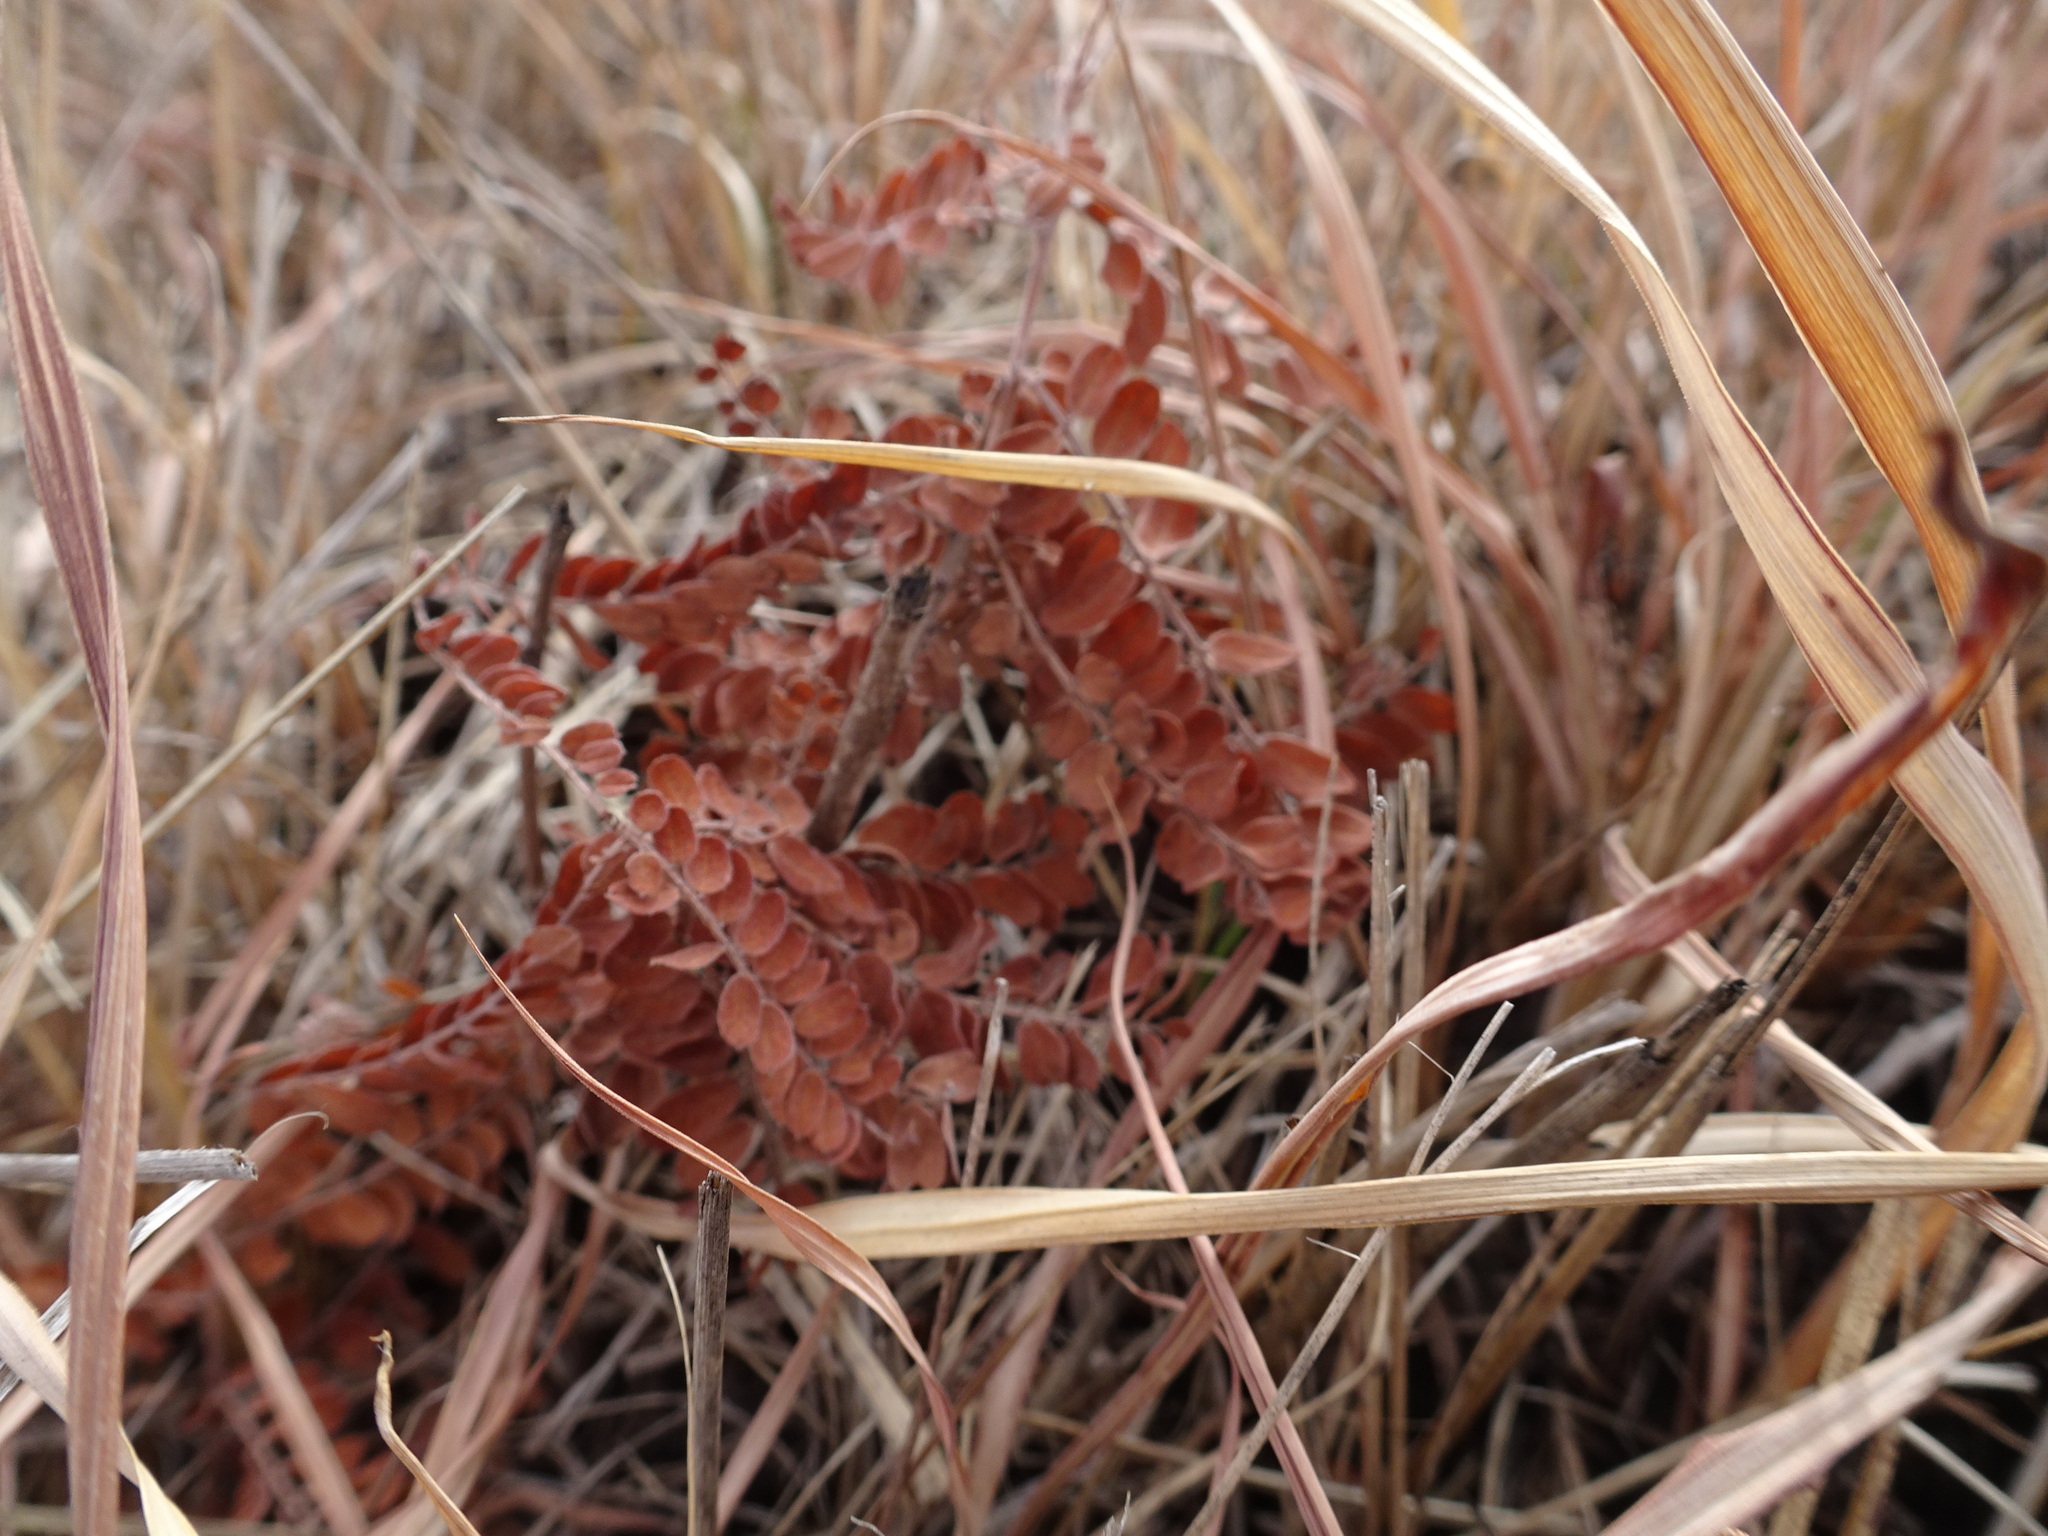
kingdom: Plantae
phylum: Tracheophyta
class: Magnoliopsida
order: Fabales
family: Fabaceae
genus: Amorpha
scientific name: Amorpha canescens
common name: Leadplant
